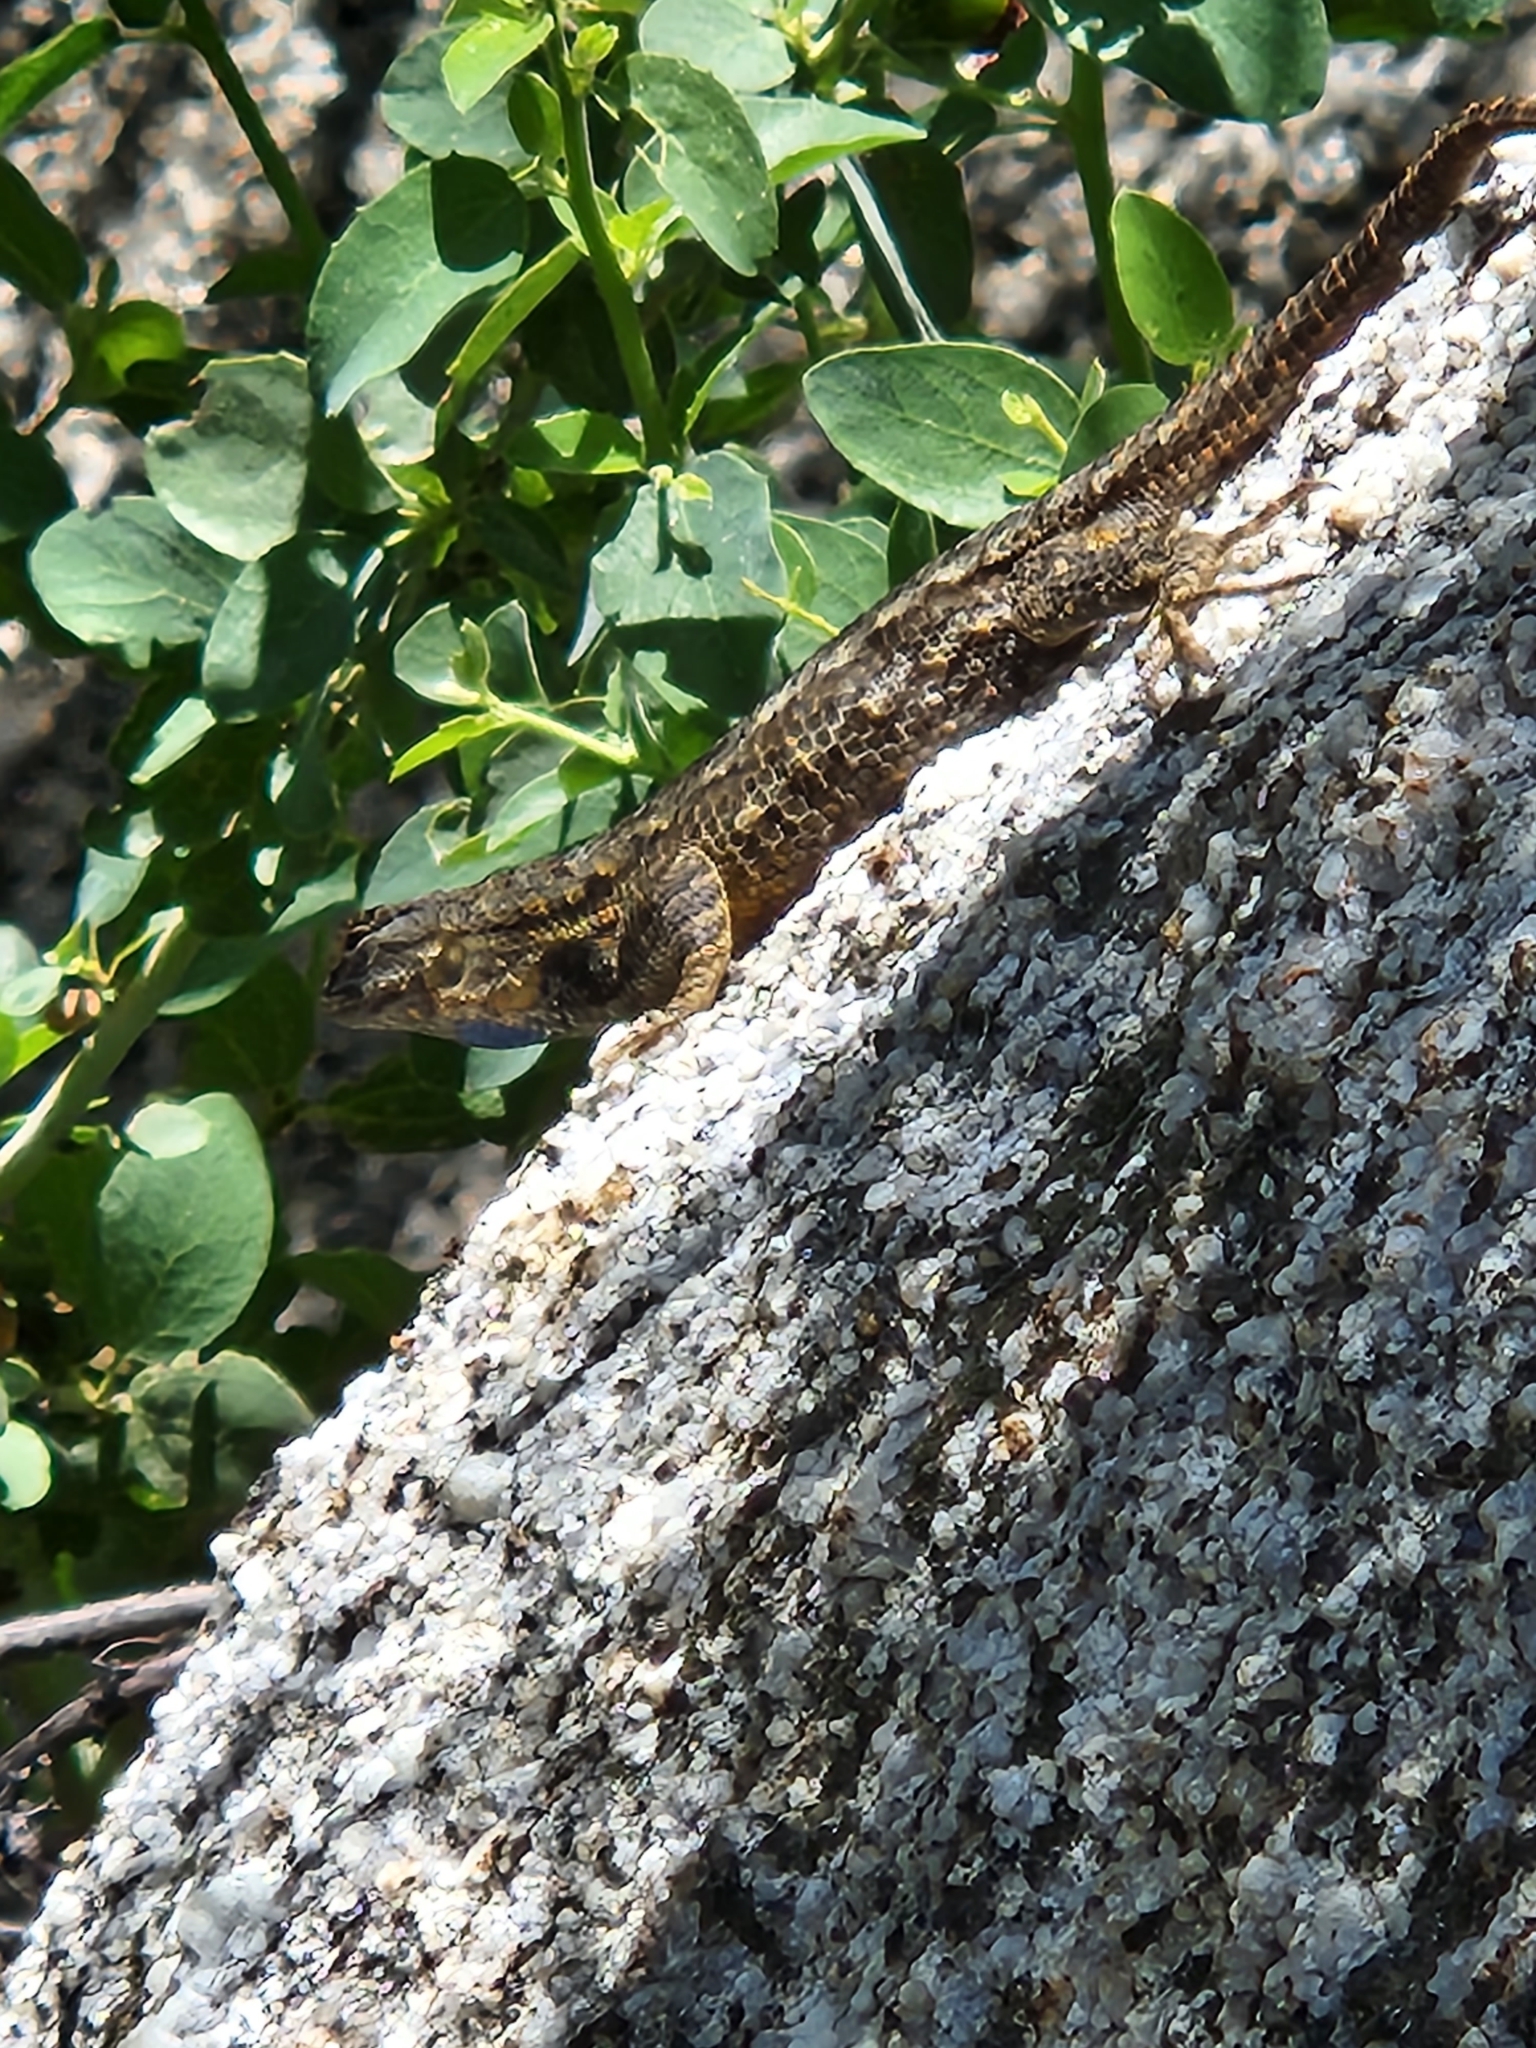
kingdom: Animalia
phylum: Chordata
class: Squamata
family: Phrynosomatidae
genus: Sceloporus
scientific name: Sceloporus occidentalis
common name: Western fence lizard
